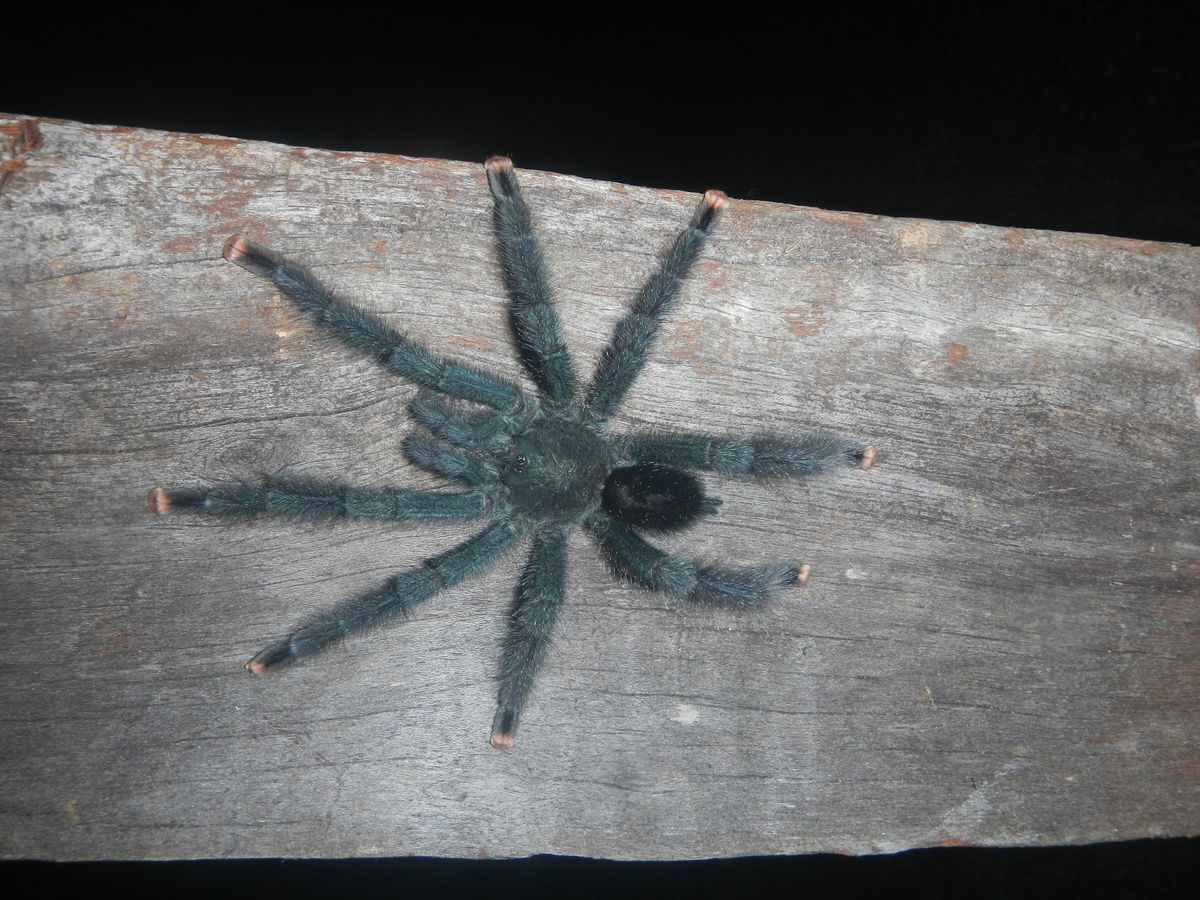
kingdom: Animalia
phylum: Arthropoda
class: Arachnida
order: Araneae
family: Theraphosidae
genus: Avicularia
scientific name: Avicularia avicularia
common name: Tarantula spiders
